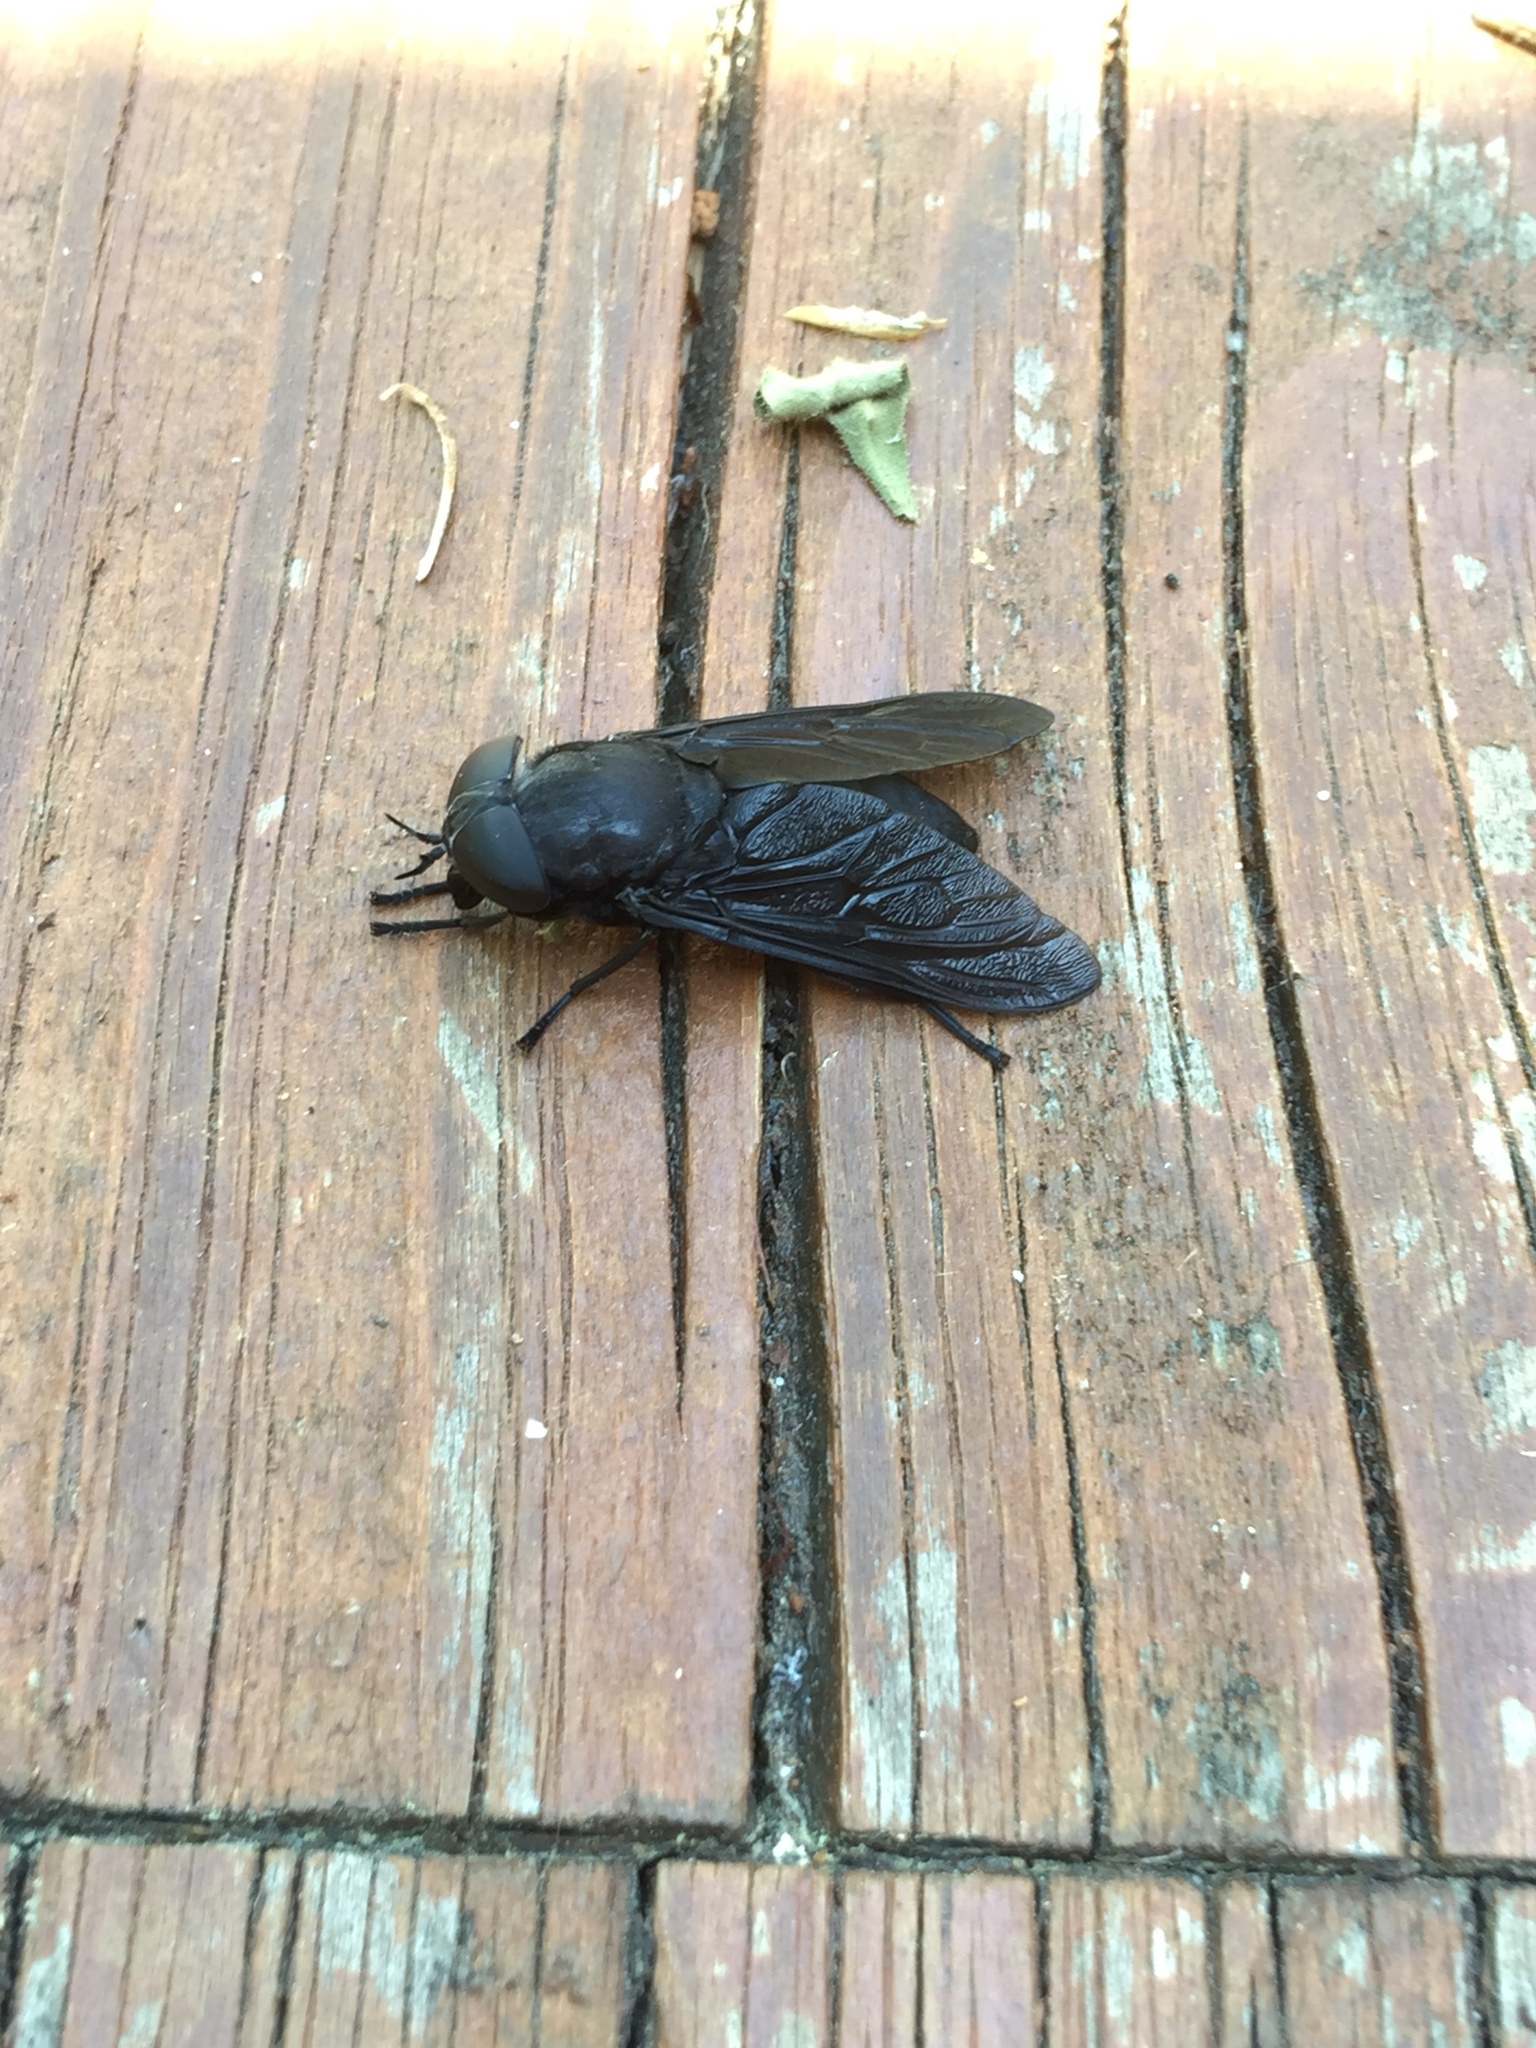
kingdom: Animalia
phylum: Arthropoda
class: Insecta
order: Diptera
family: Tabanidae
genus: Tabanus
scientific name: Tabanus atratus
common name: Black horse fly
